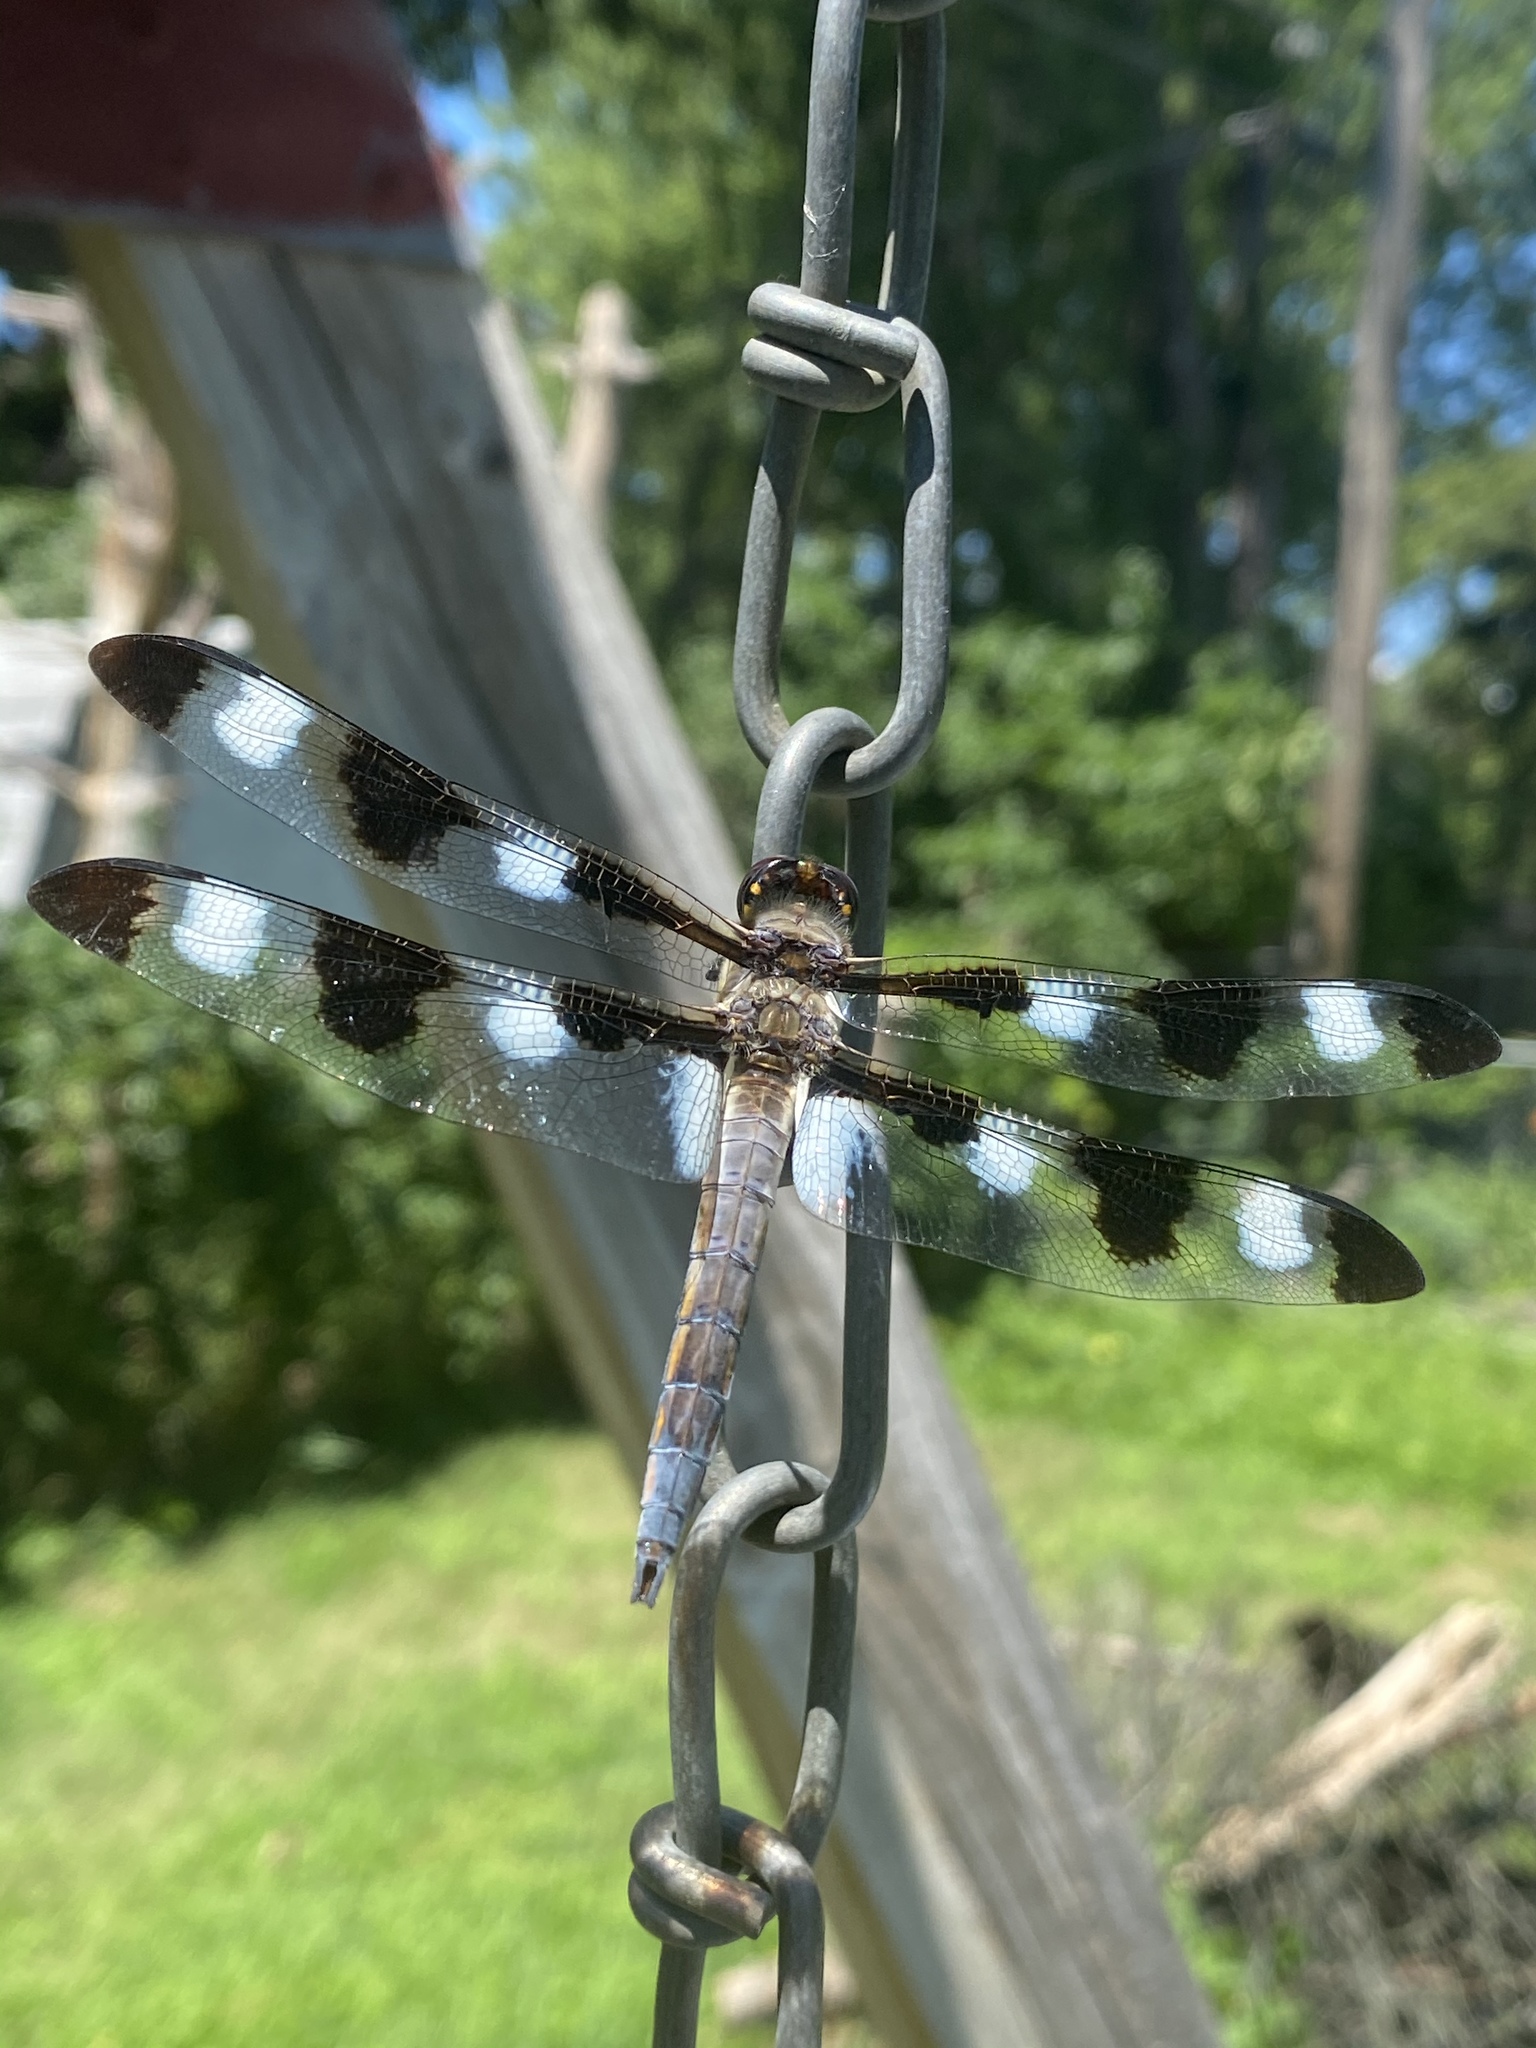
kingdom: Animalia
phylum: Arthropoda
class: Insecta
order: Odonata
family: Libellulidae
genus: Libellula
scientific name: Libellula pulchella
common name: Twelve-spotted skimmer
